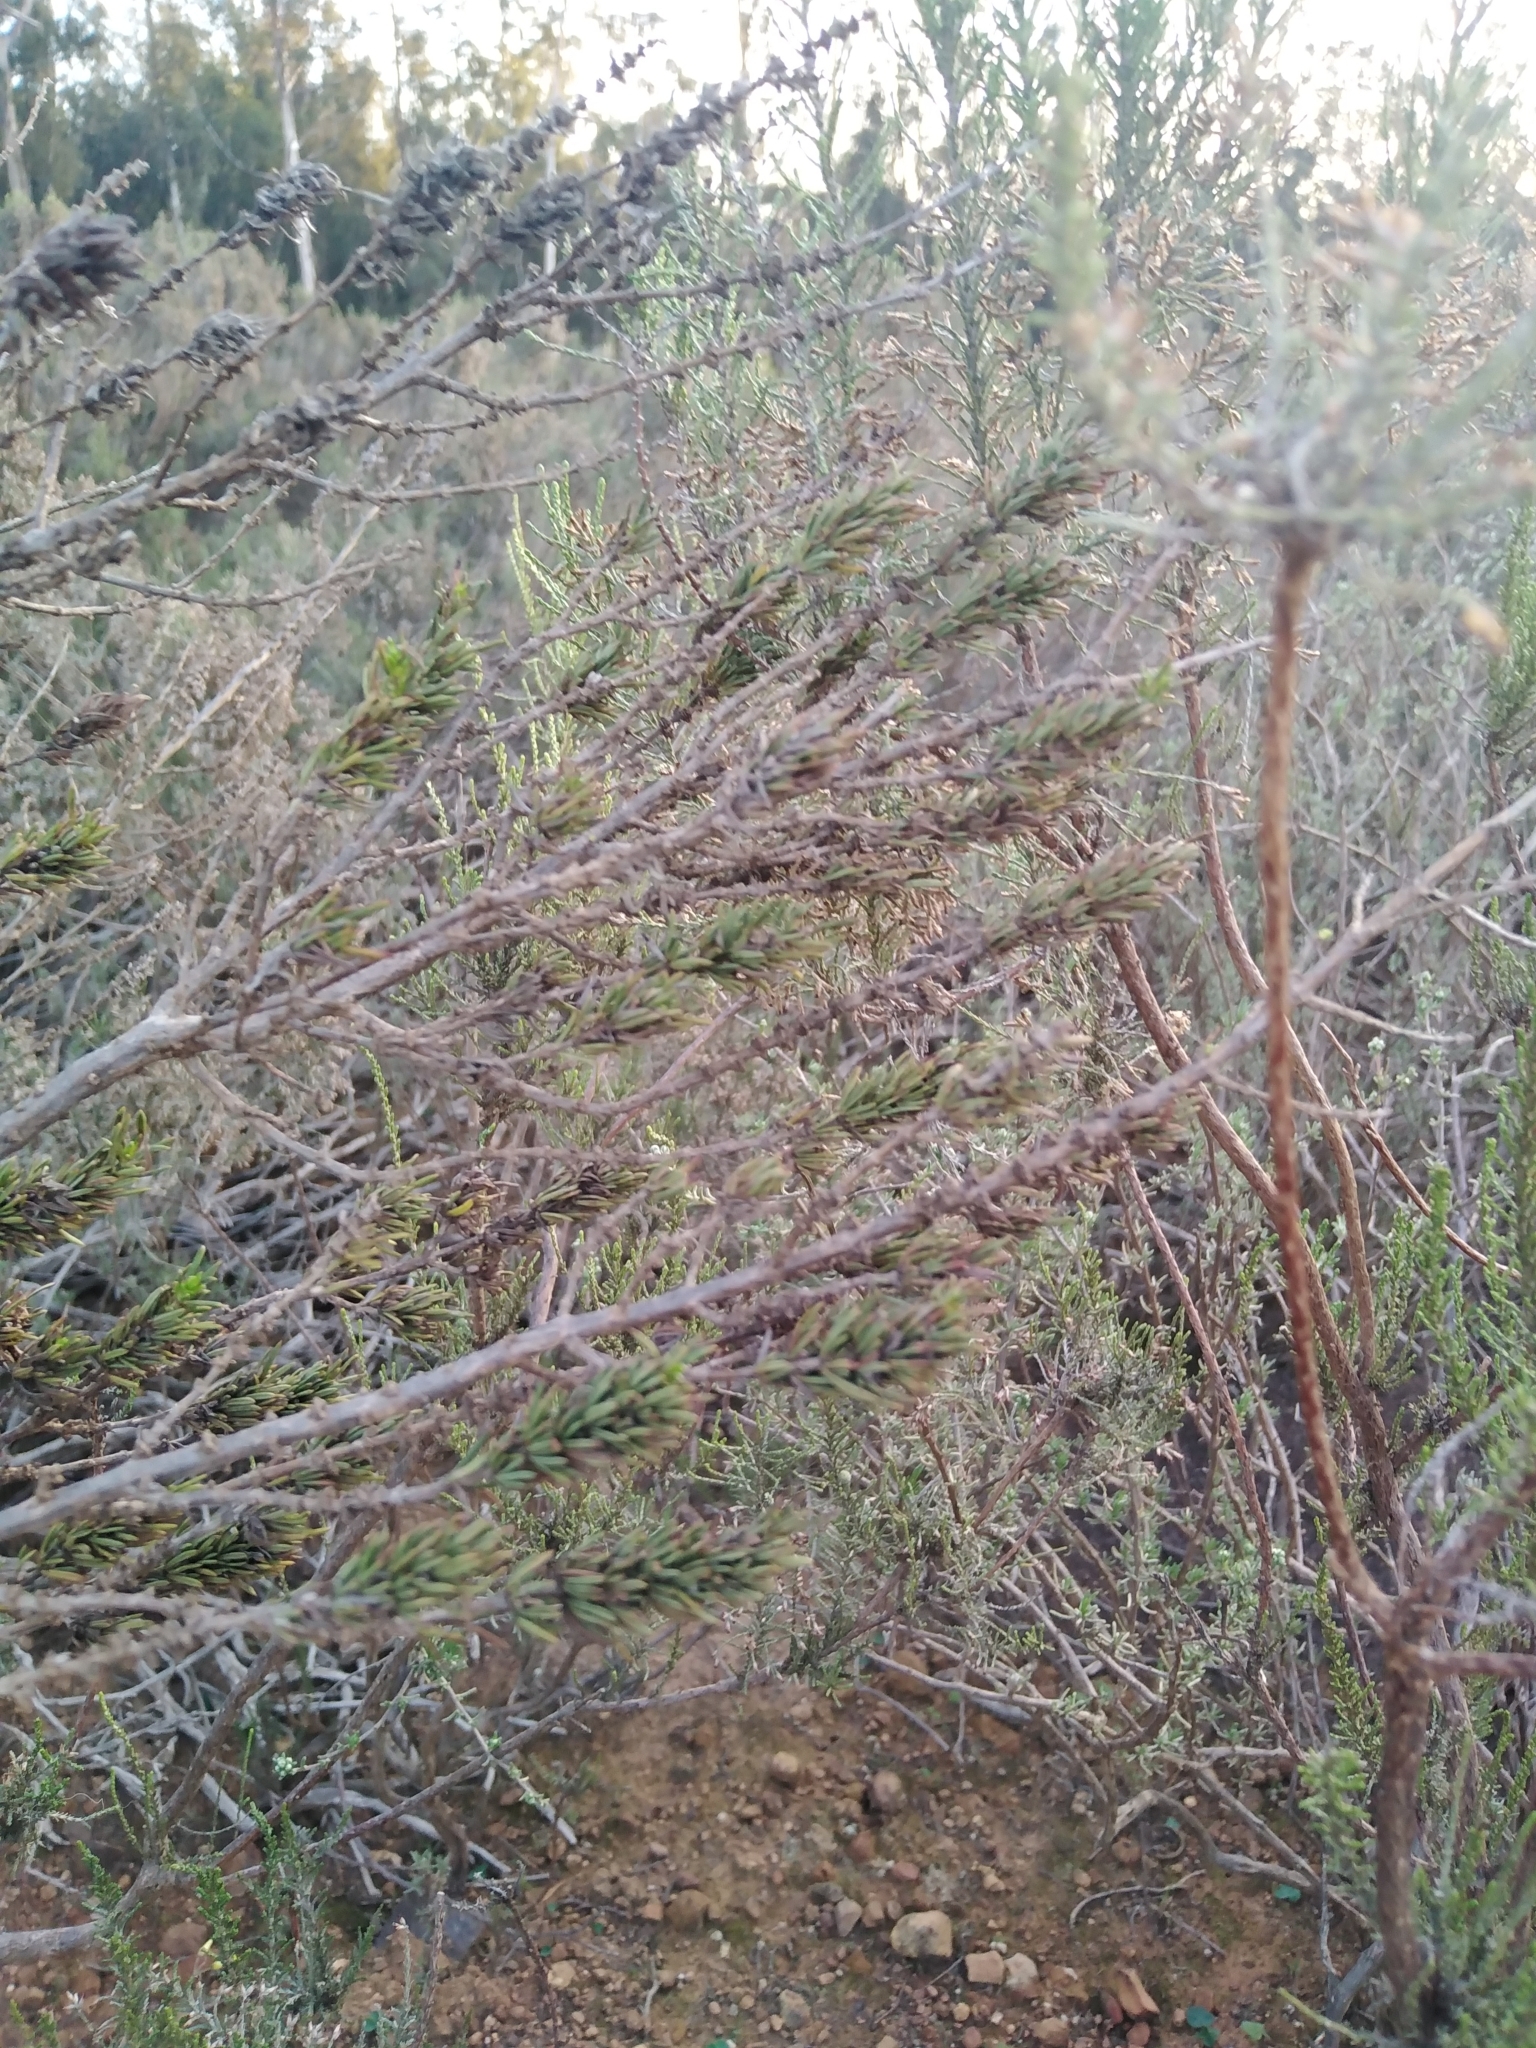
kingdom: Plantae
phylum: Tracheophyta
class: Magnoliopsida
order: Gentianales
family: Rubiaceae
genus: Anthospermum
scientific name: Anthospermum aethiopicum
